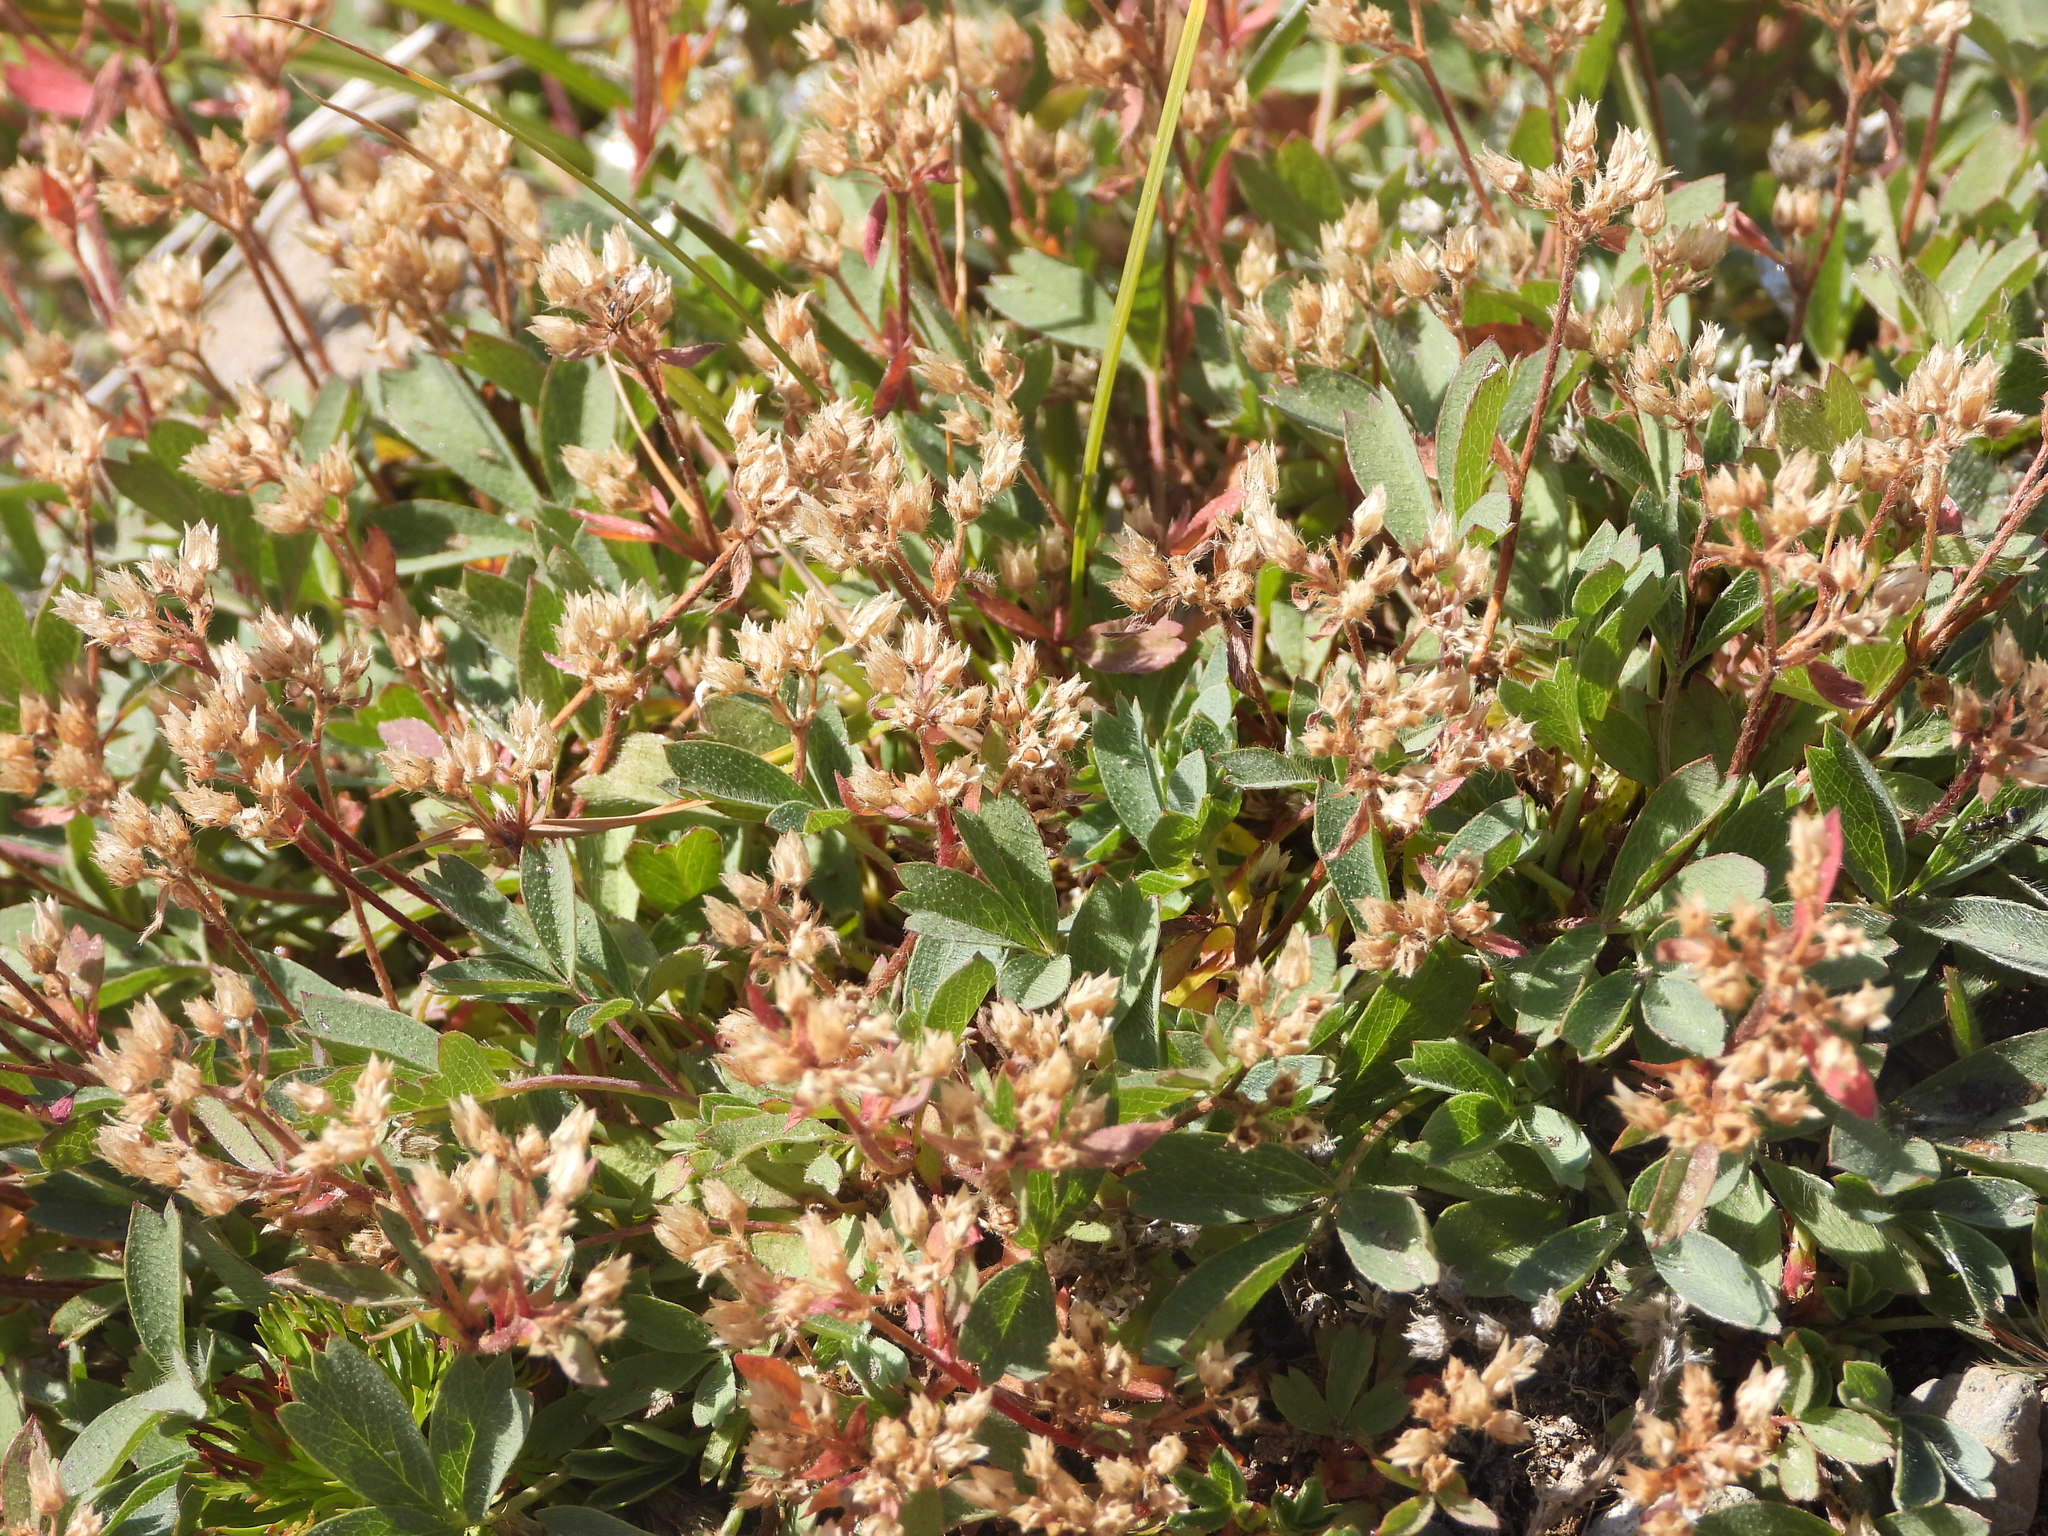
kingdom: Plantae
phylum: Tracheophyta
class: Magnoliopsida
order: Rosales
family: Rosaceae
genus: Sibbaldia
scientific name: Sibbaldia procumbens
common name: Creeping sibbaldia
